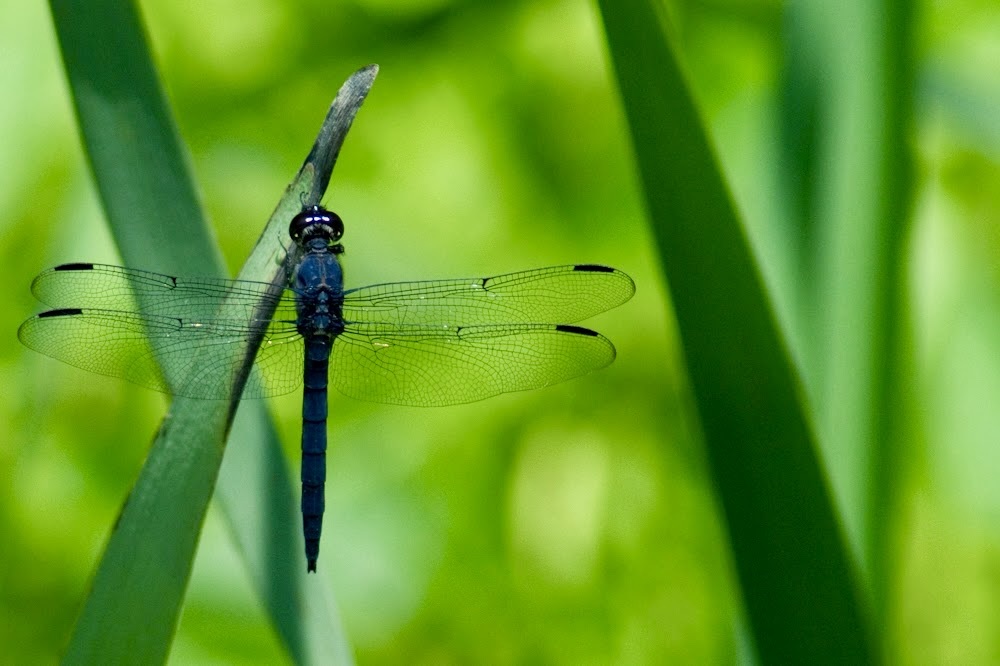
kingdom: Animalia
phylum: Arthropoda
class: Insecta
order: Odonata
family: Libellulidae
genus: Libellula
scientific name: Libellula incesta
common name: Slaty skimmer
